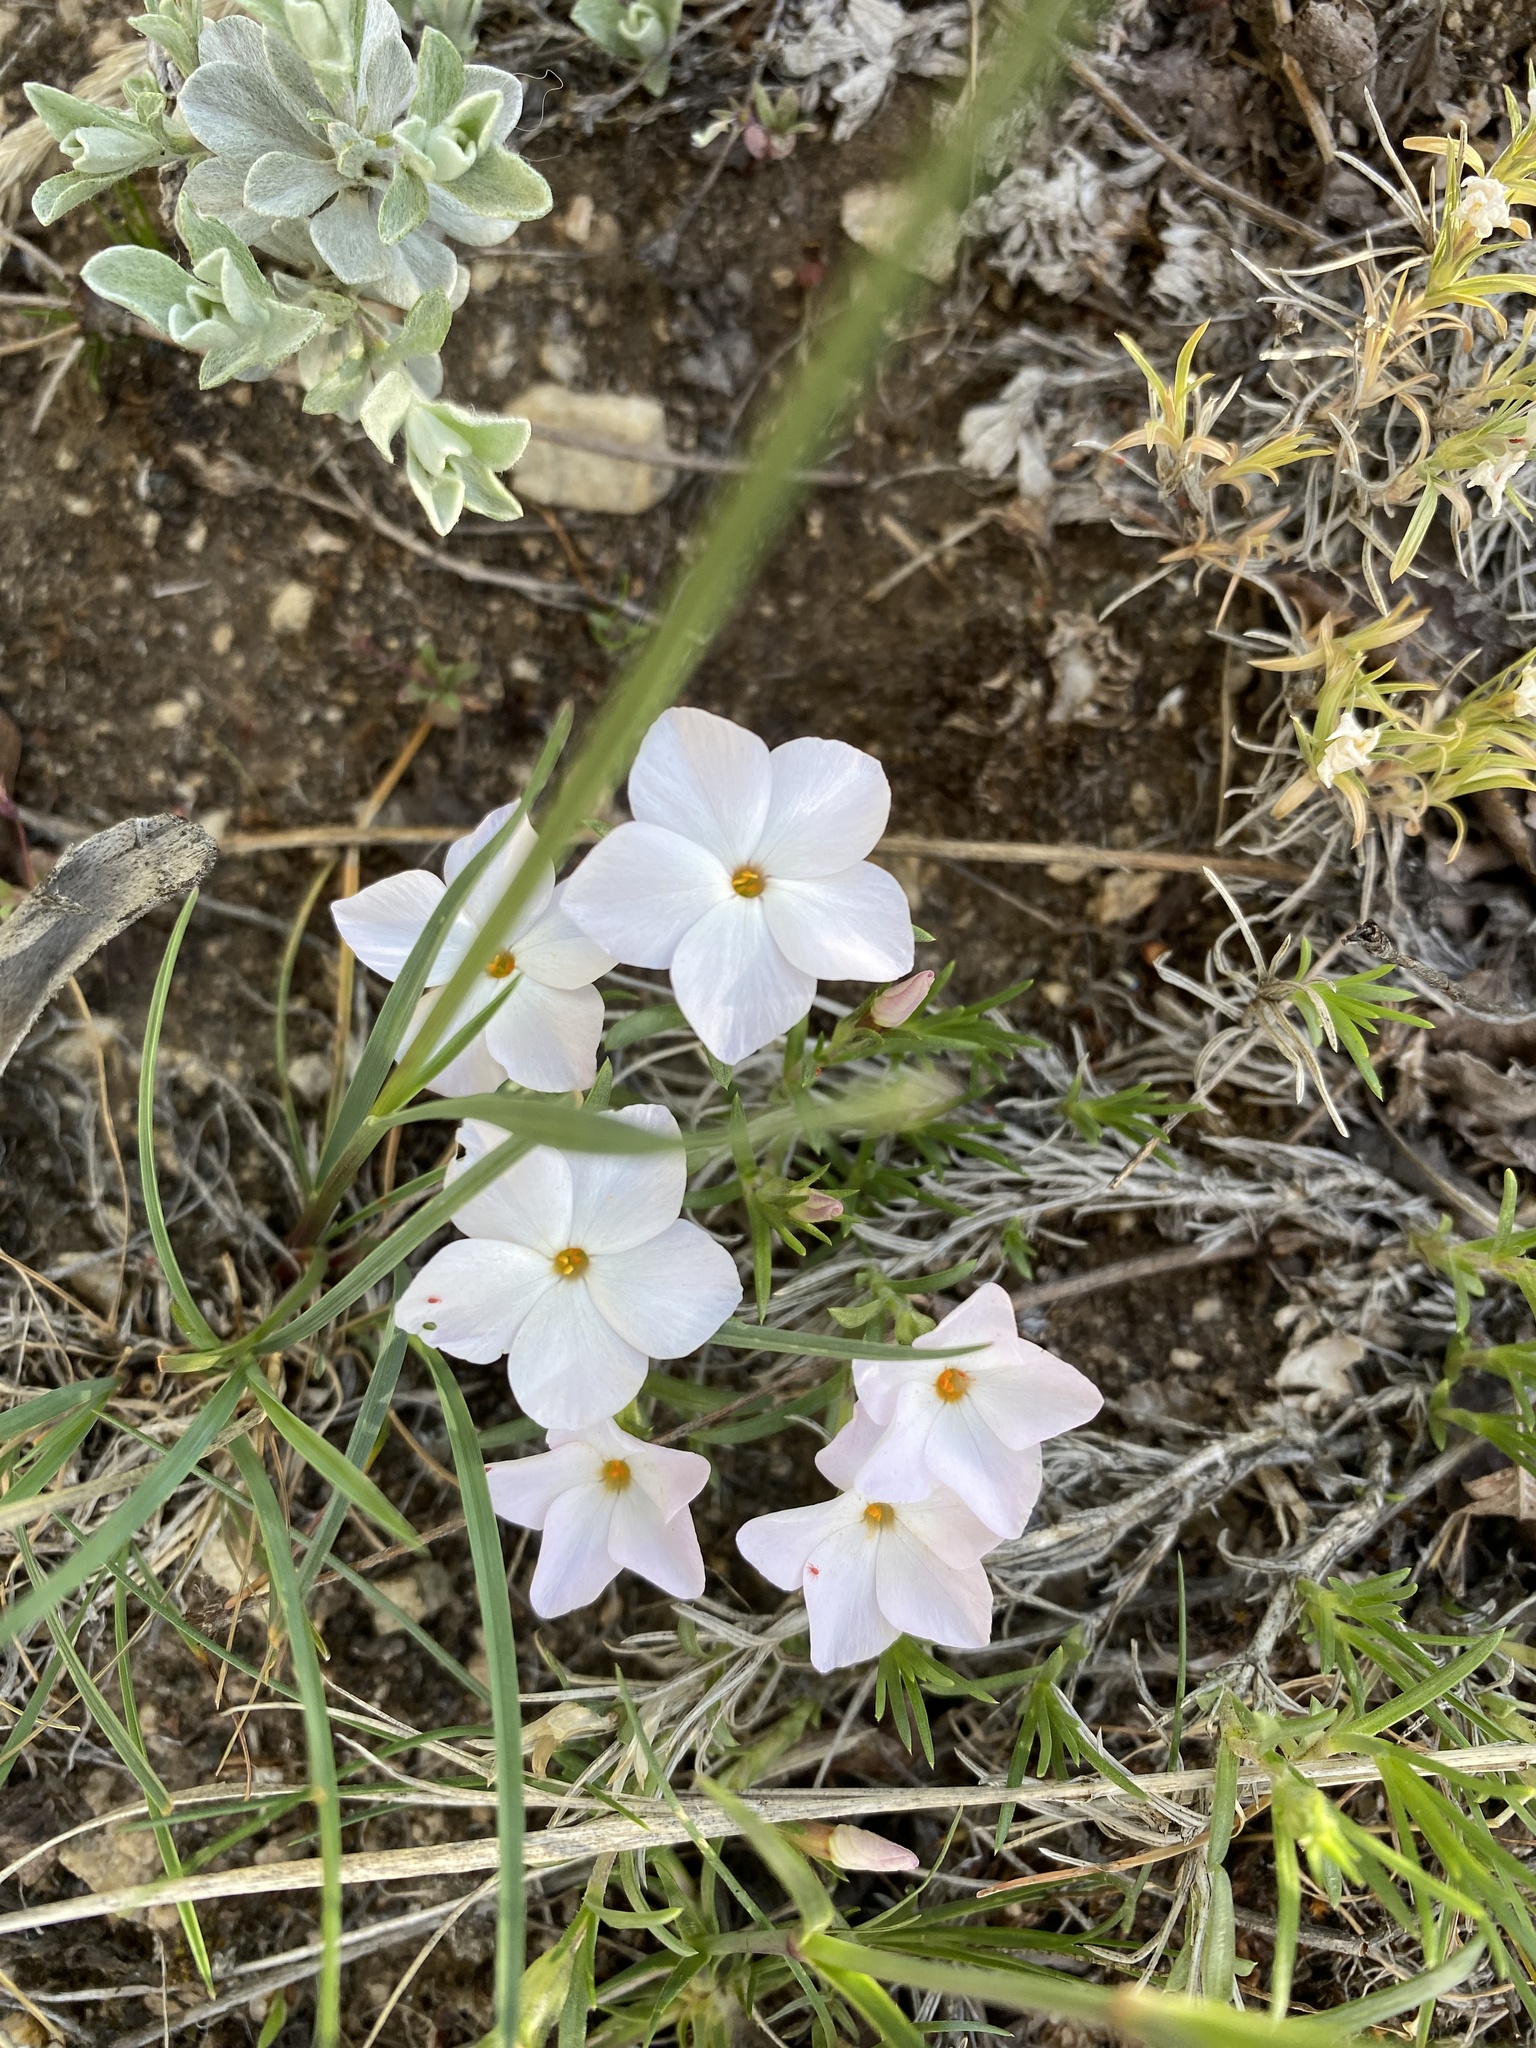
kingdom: Plantae
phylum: Tracheophyta
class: Magnoliopsida
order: Ericales
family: Polemoniaceae
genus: Phlox
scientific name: Phlox multiflora
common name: Rocky mountain phlox
